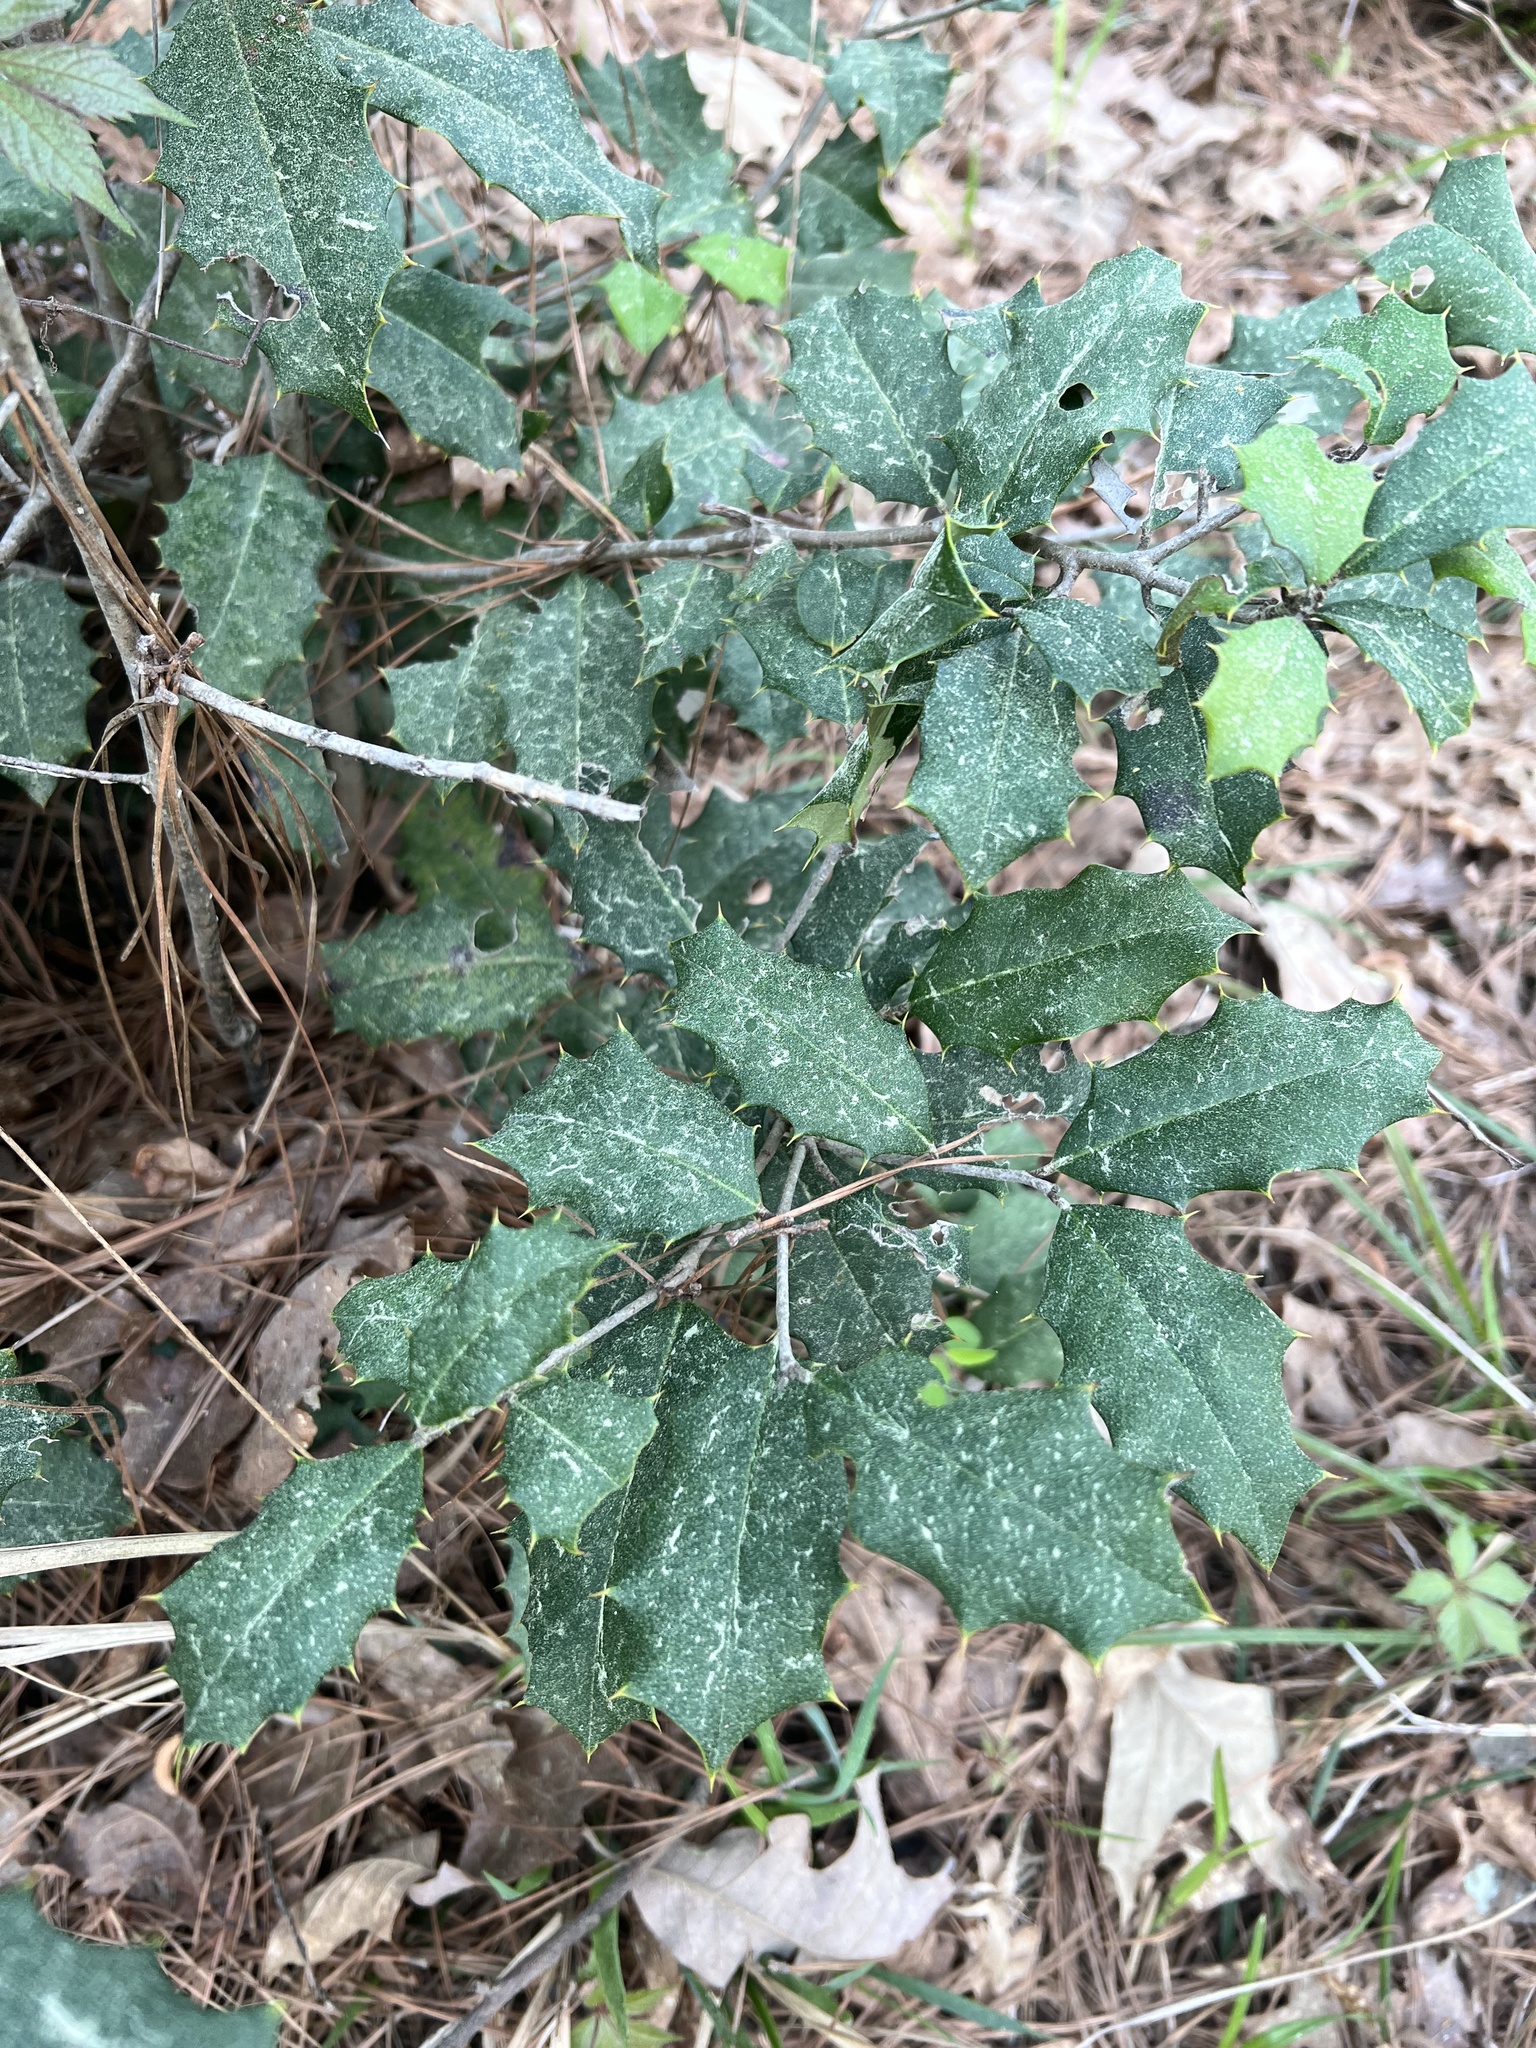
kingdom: Plantae
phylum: Tracheophyta
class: Magnoliopsida
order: Aquifoliales
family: Aquifoliaceae
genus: Ilex
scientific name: Ilex opaca
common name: American holly
